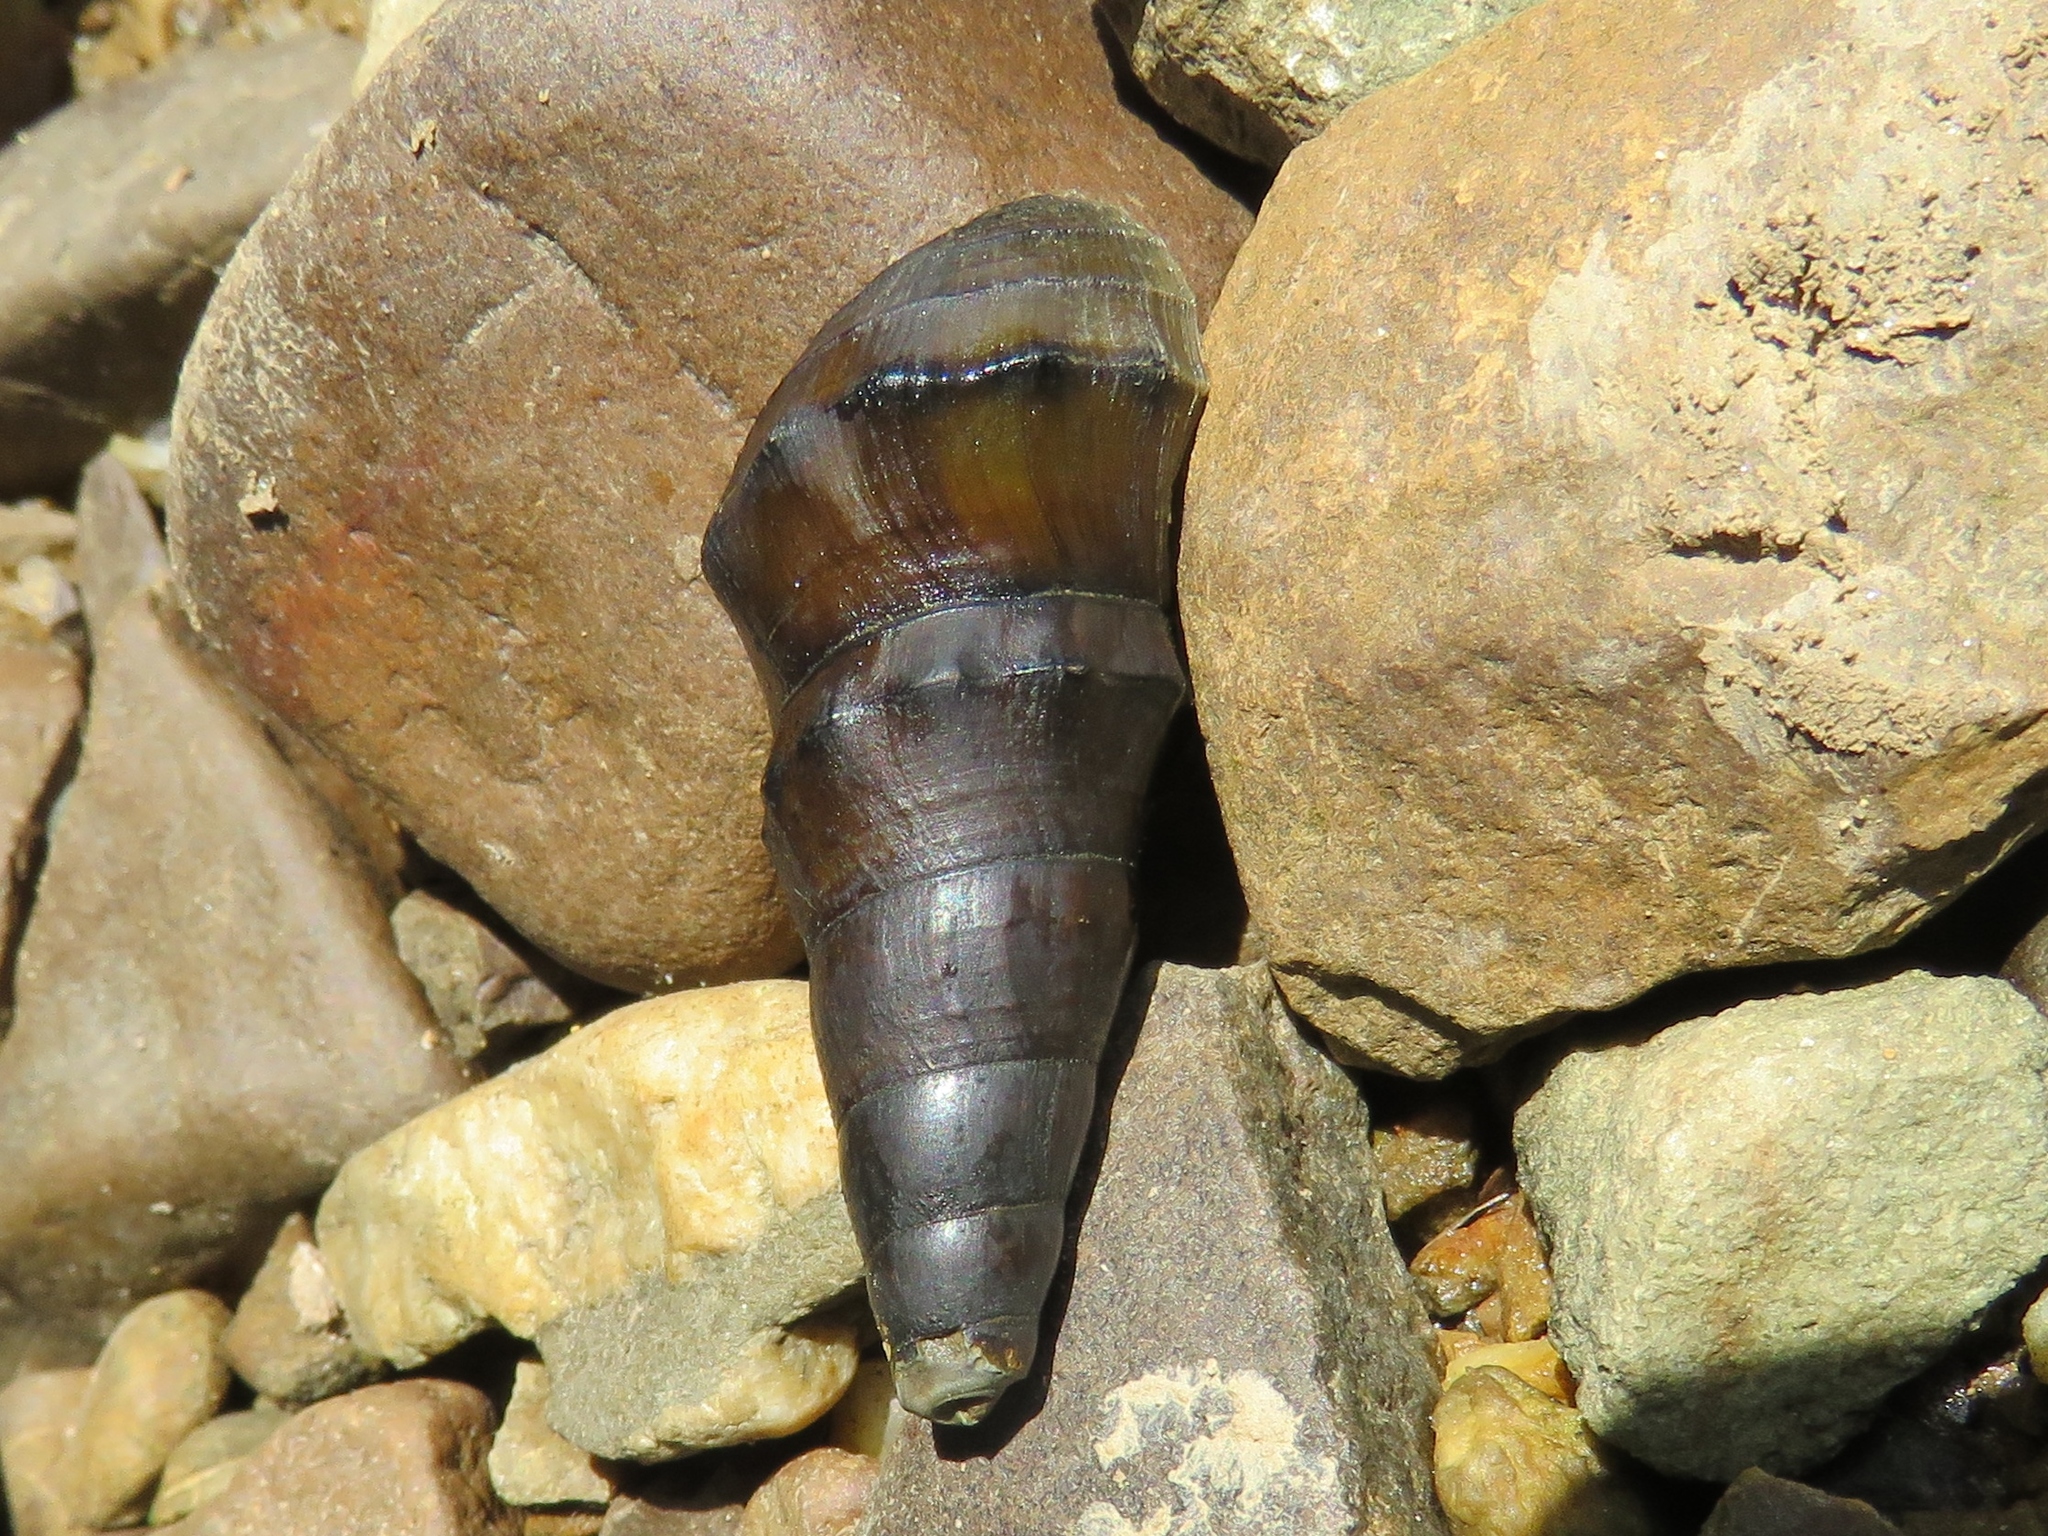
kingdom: Animalia
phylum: Mollusca
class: Gastropoda
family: Pachychilidae
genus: Pachychilus
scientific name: Pachychilus glaphyrus
